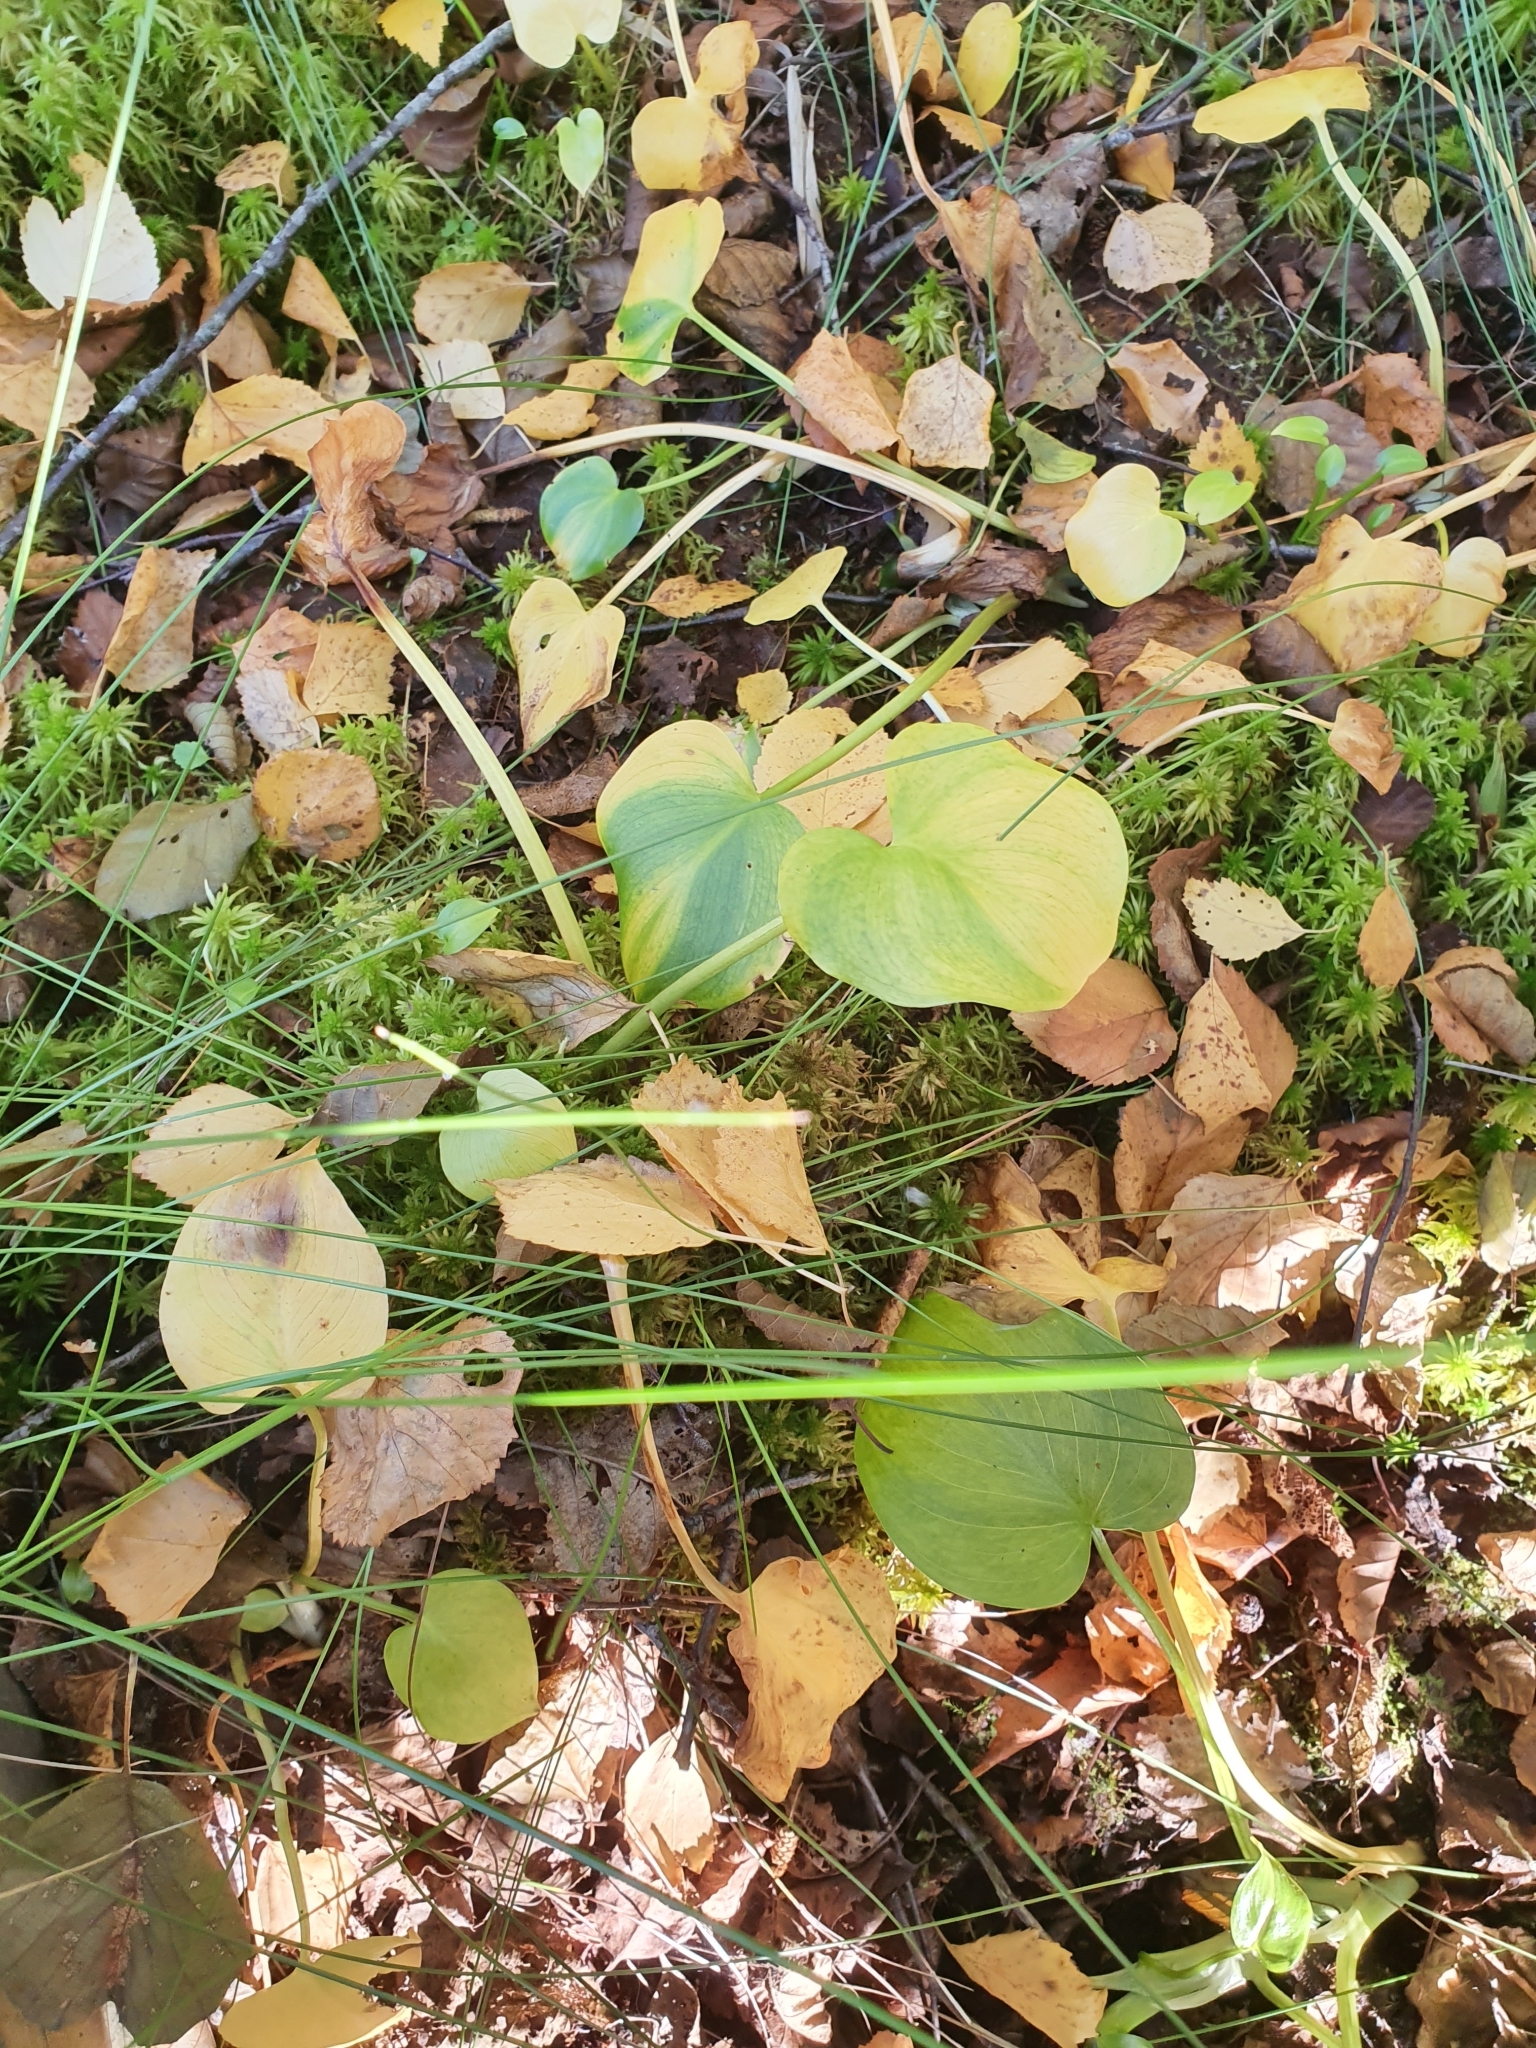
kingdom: Plantae
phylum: Tracheophyta
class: Liliopsida
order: Alismatales
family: Araceae
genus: Calla
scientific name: Calla palustris
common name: Bog arum
